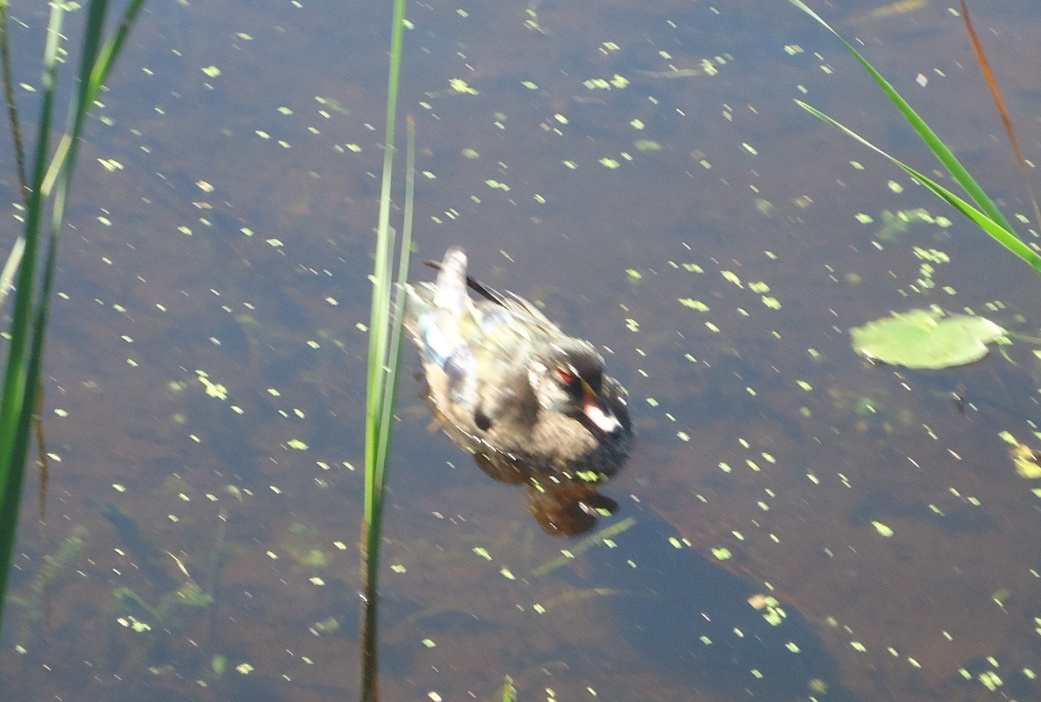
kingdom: Animalia
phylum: Chordata
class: Aves
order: Anseriformes
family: Anatidae
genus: Aix
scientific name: Aix sponsa
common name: Wood duck
